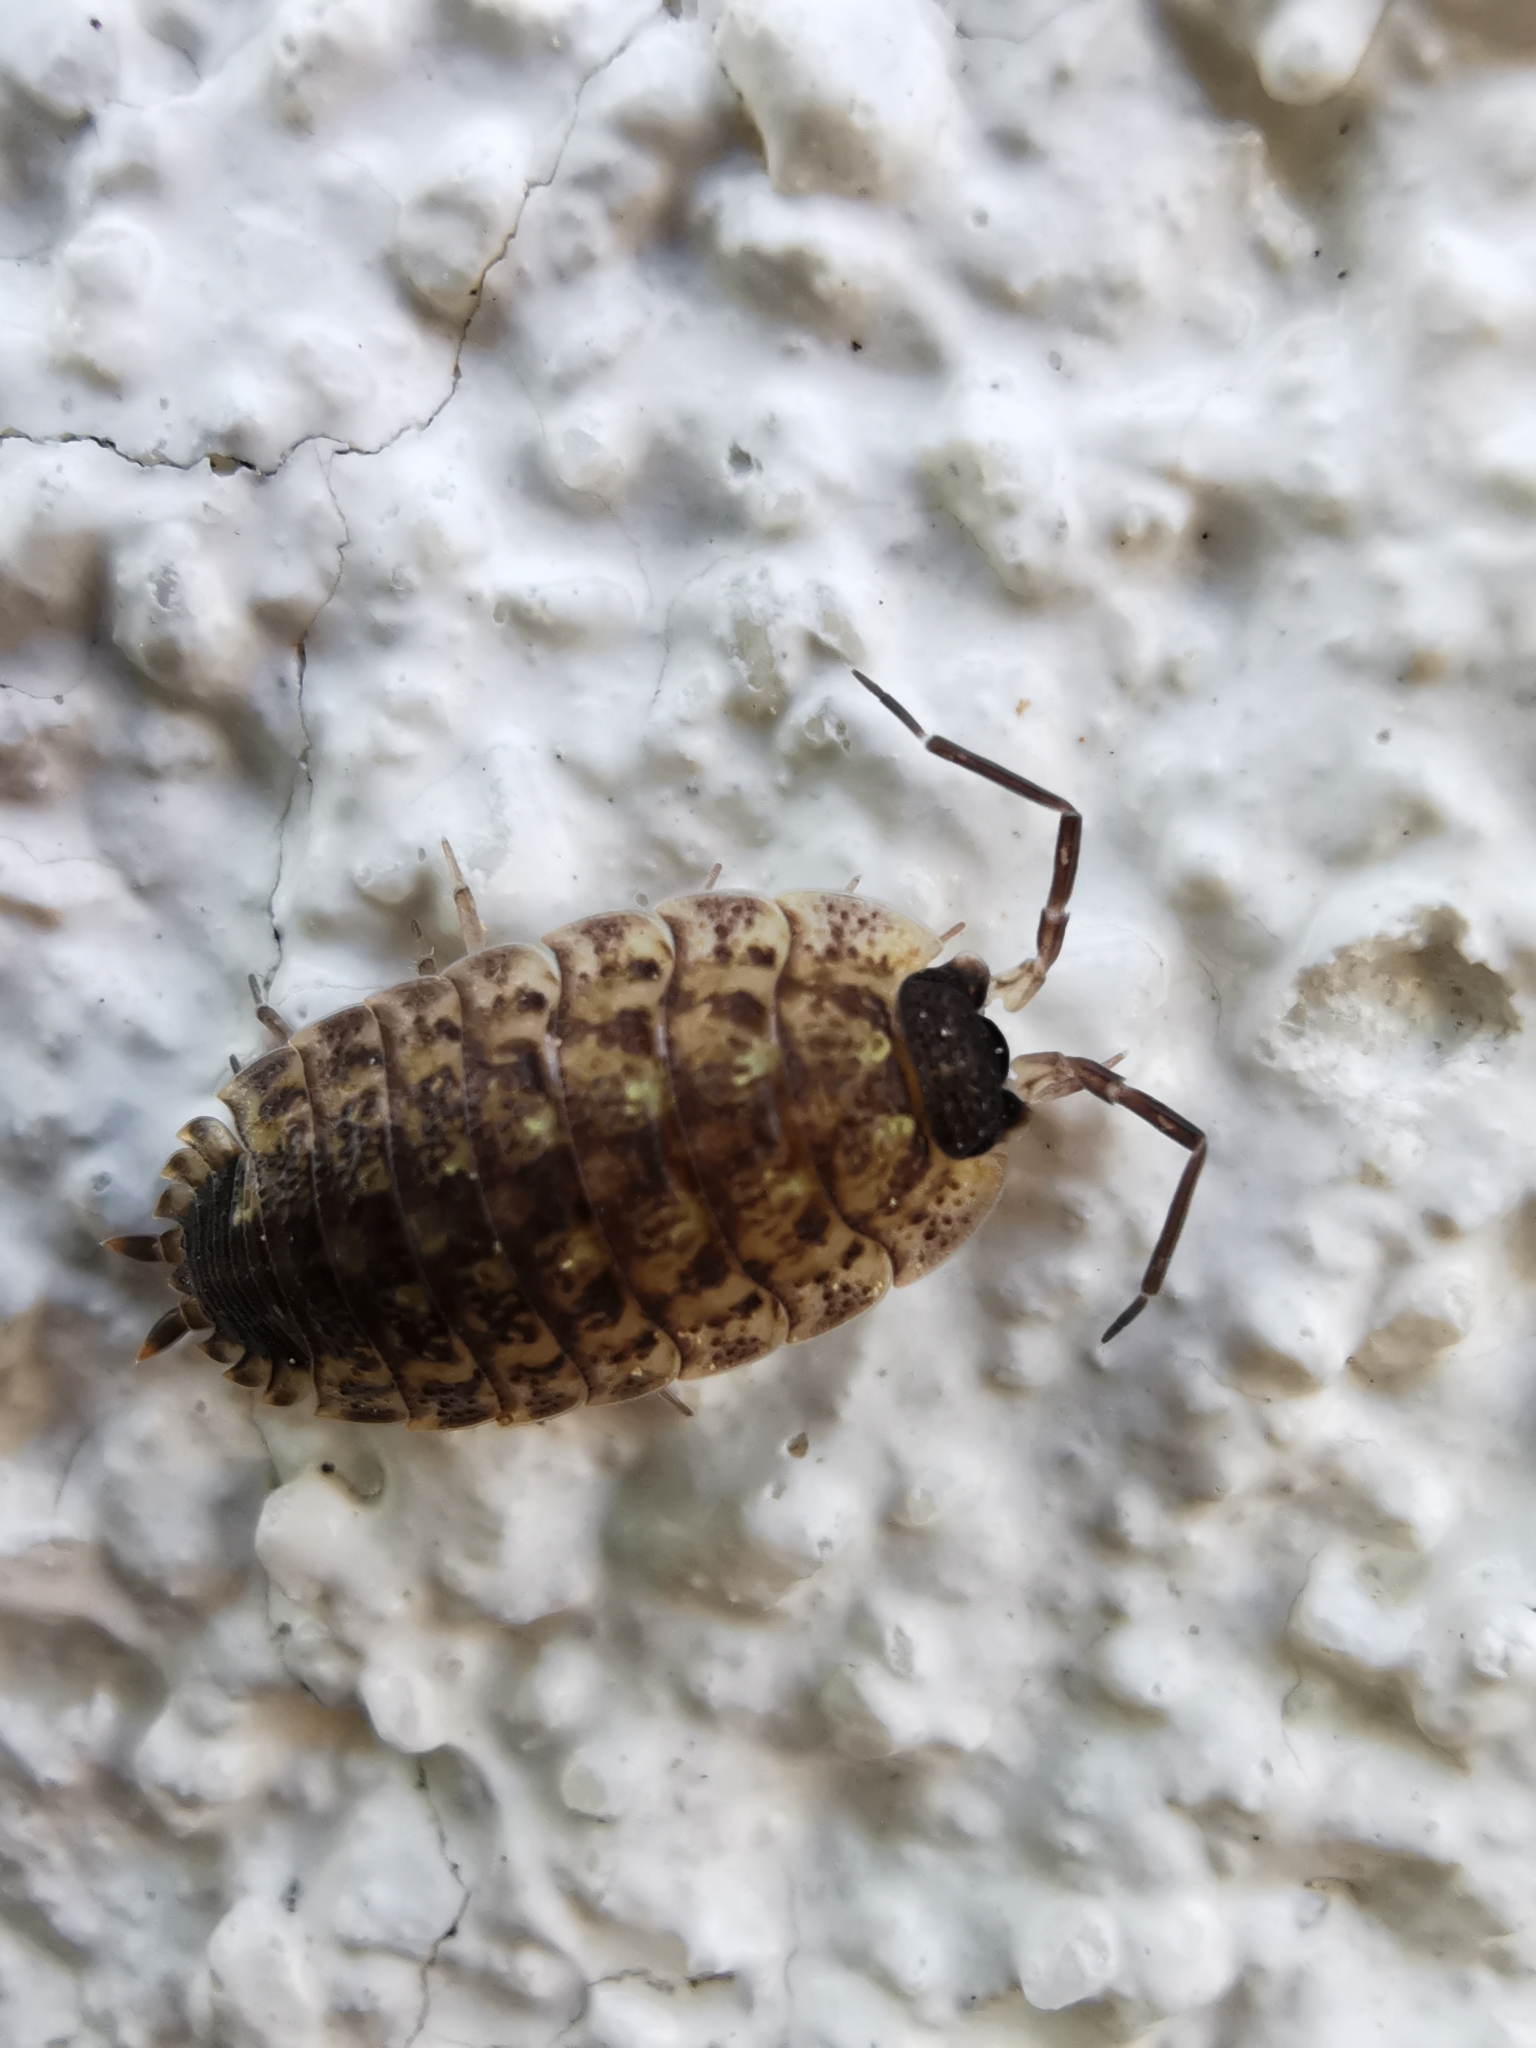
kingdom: Animalia
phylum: Arthropoda
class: Malacostraca
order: Isopoda
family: Porcellionidae
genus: Porcellio
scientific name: Porcellio spinicornis
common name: Painted woodlouse
